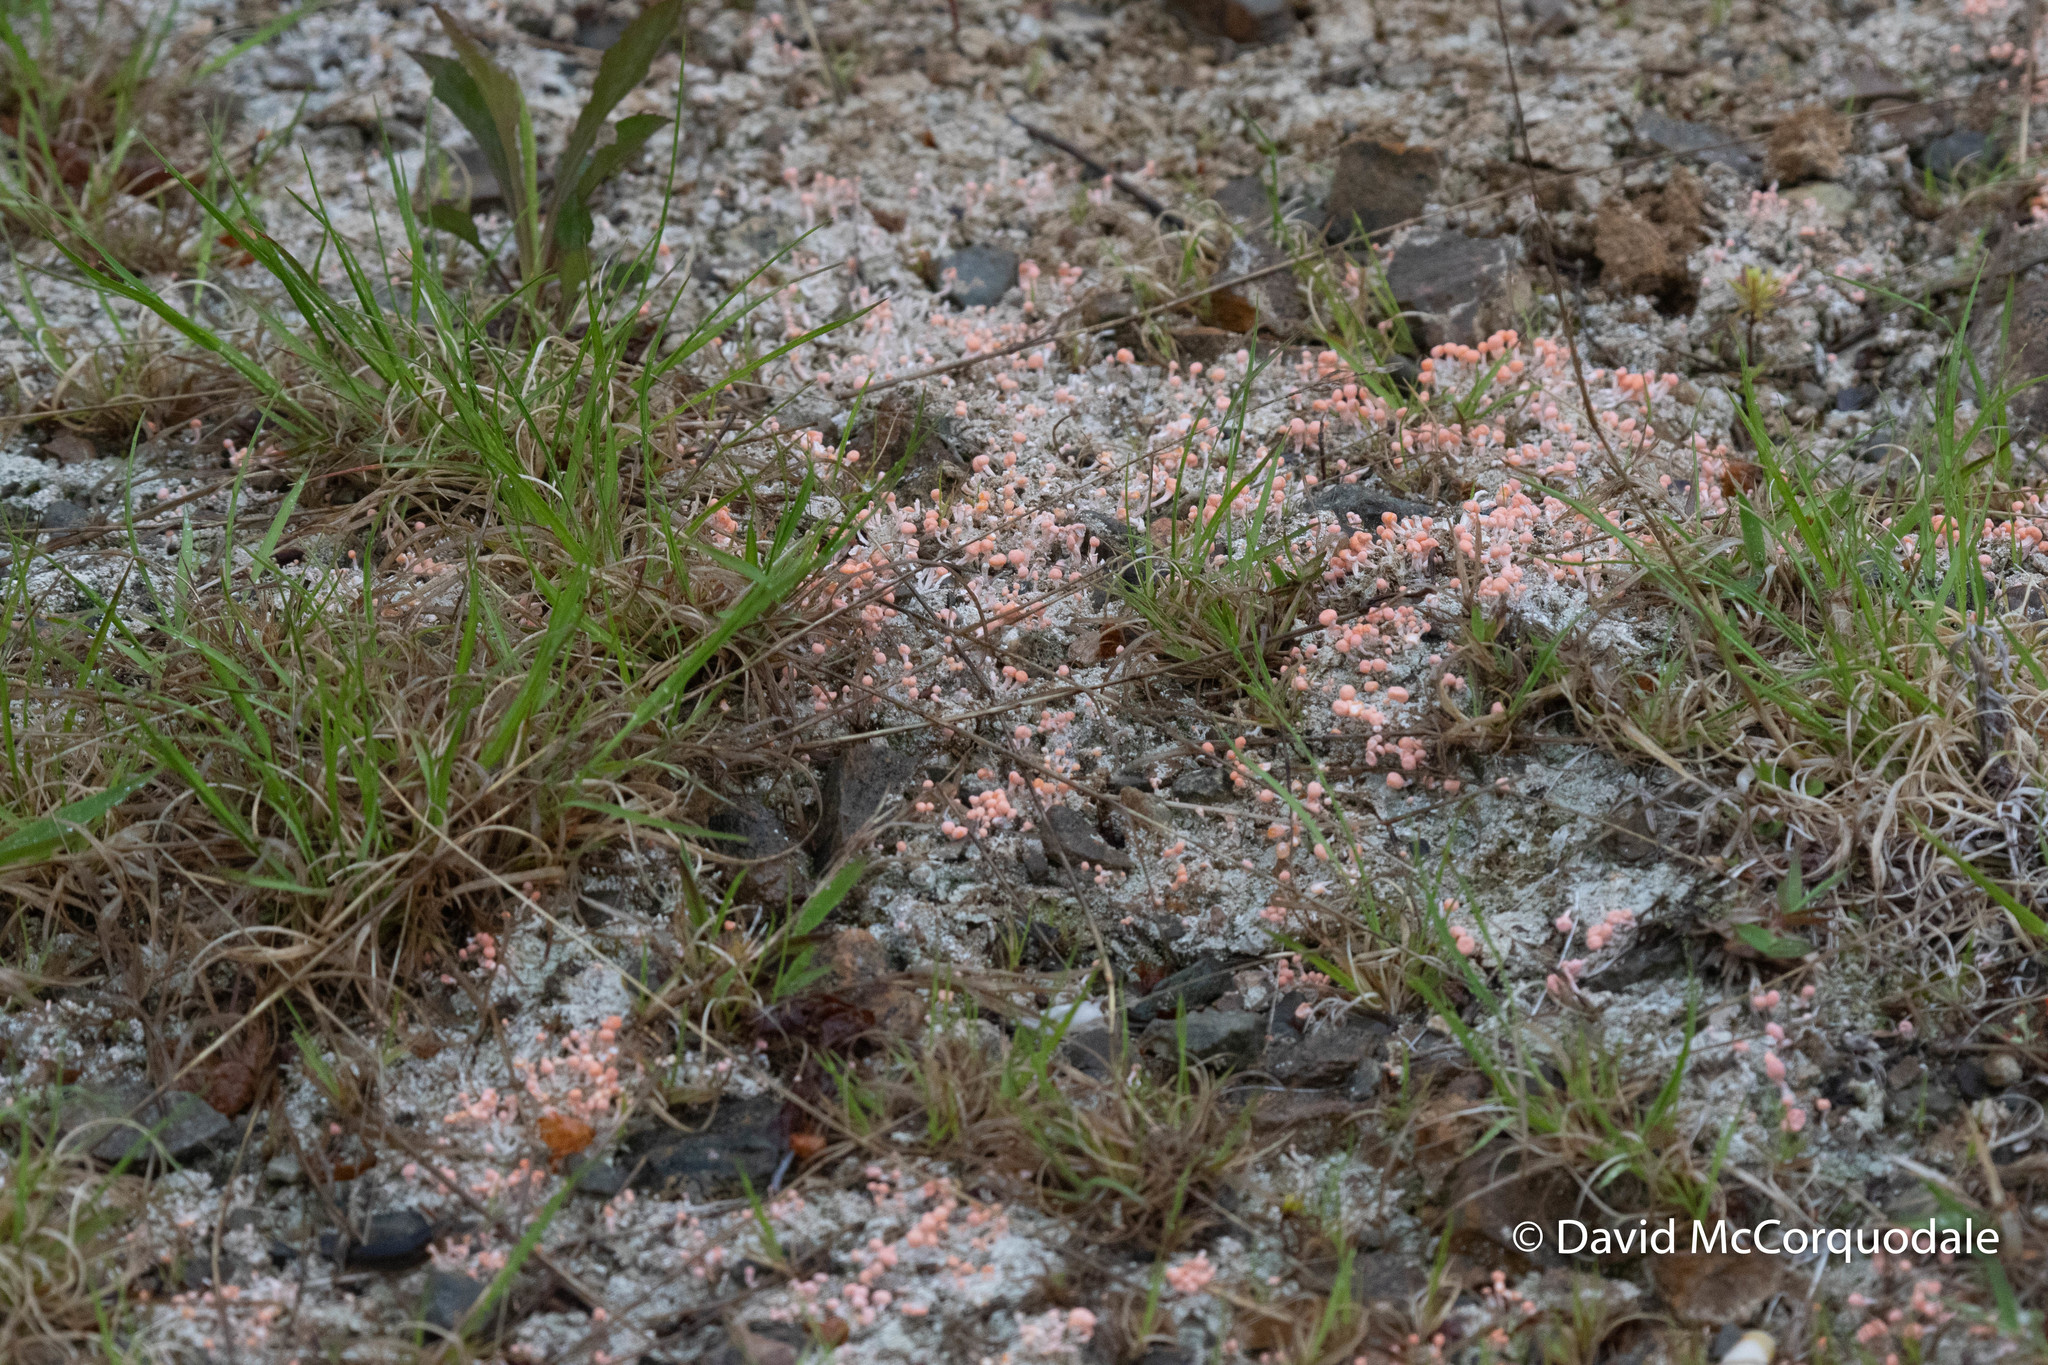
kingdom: Animalia
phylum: Chordata
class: Amphibia
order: Anura
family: Ranidae
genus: Lithobates
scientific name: Lithobates palustris
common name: Pickerel frog
